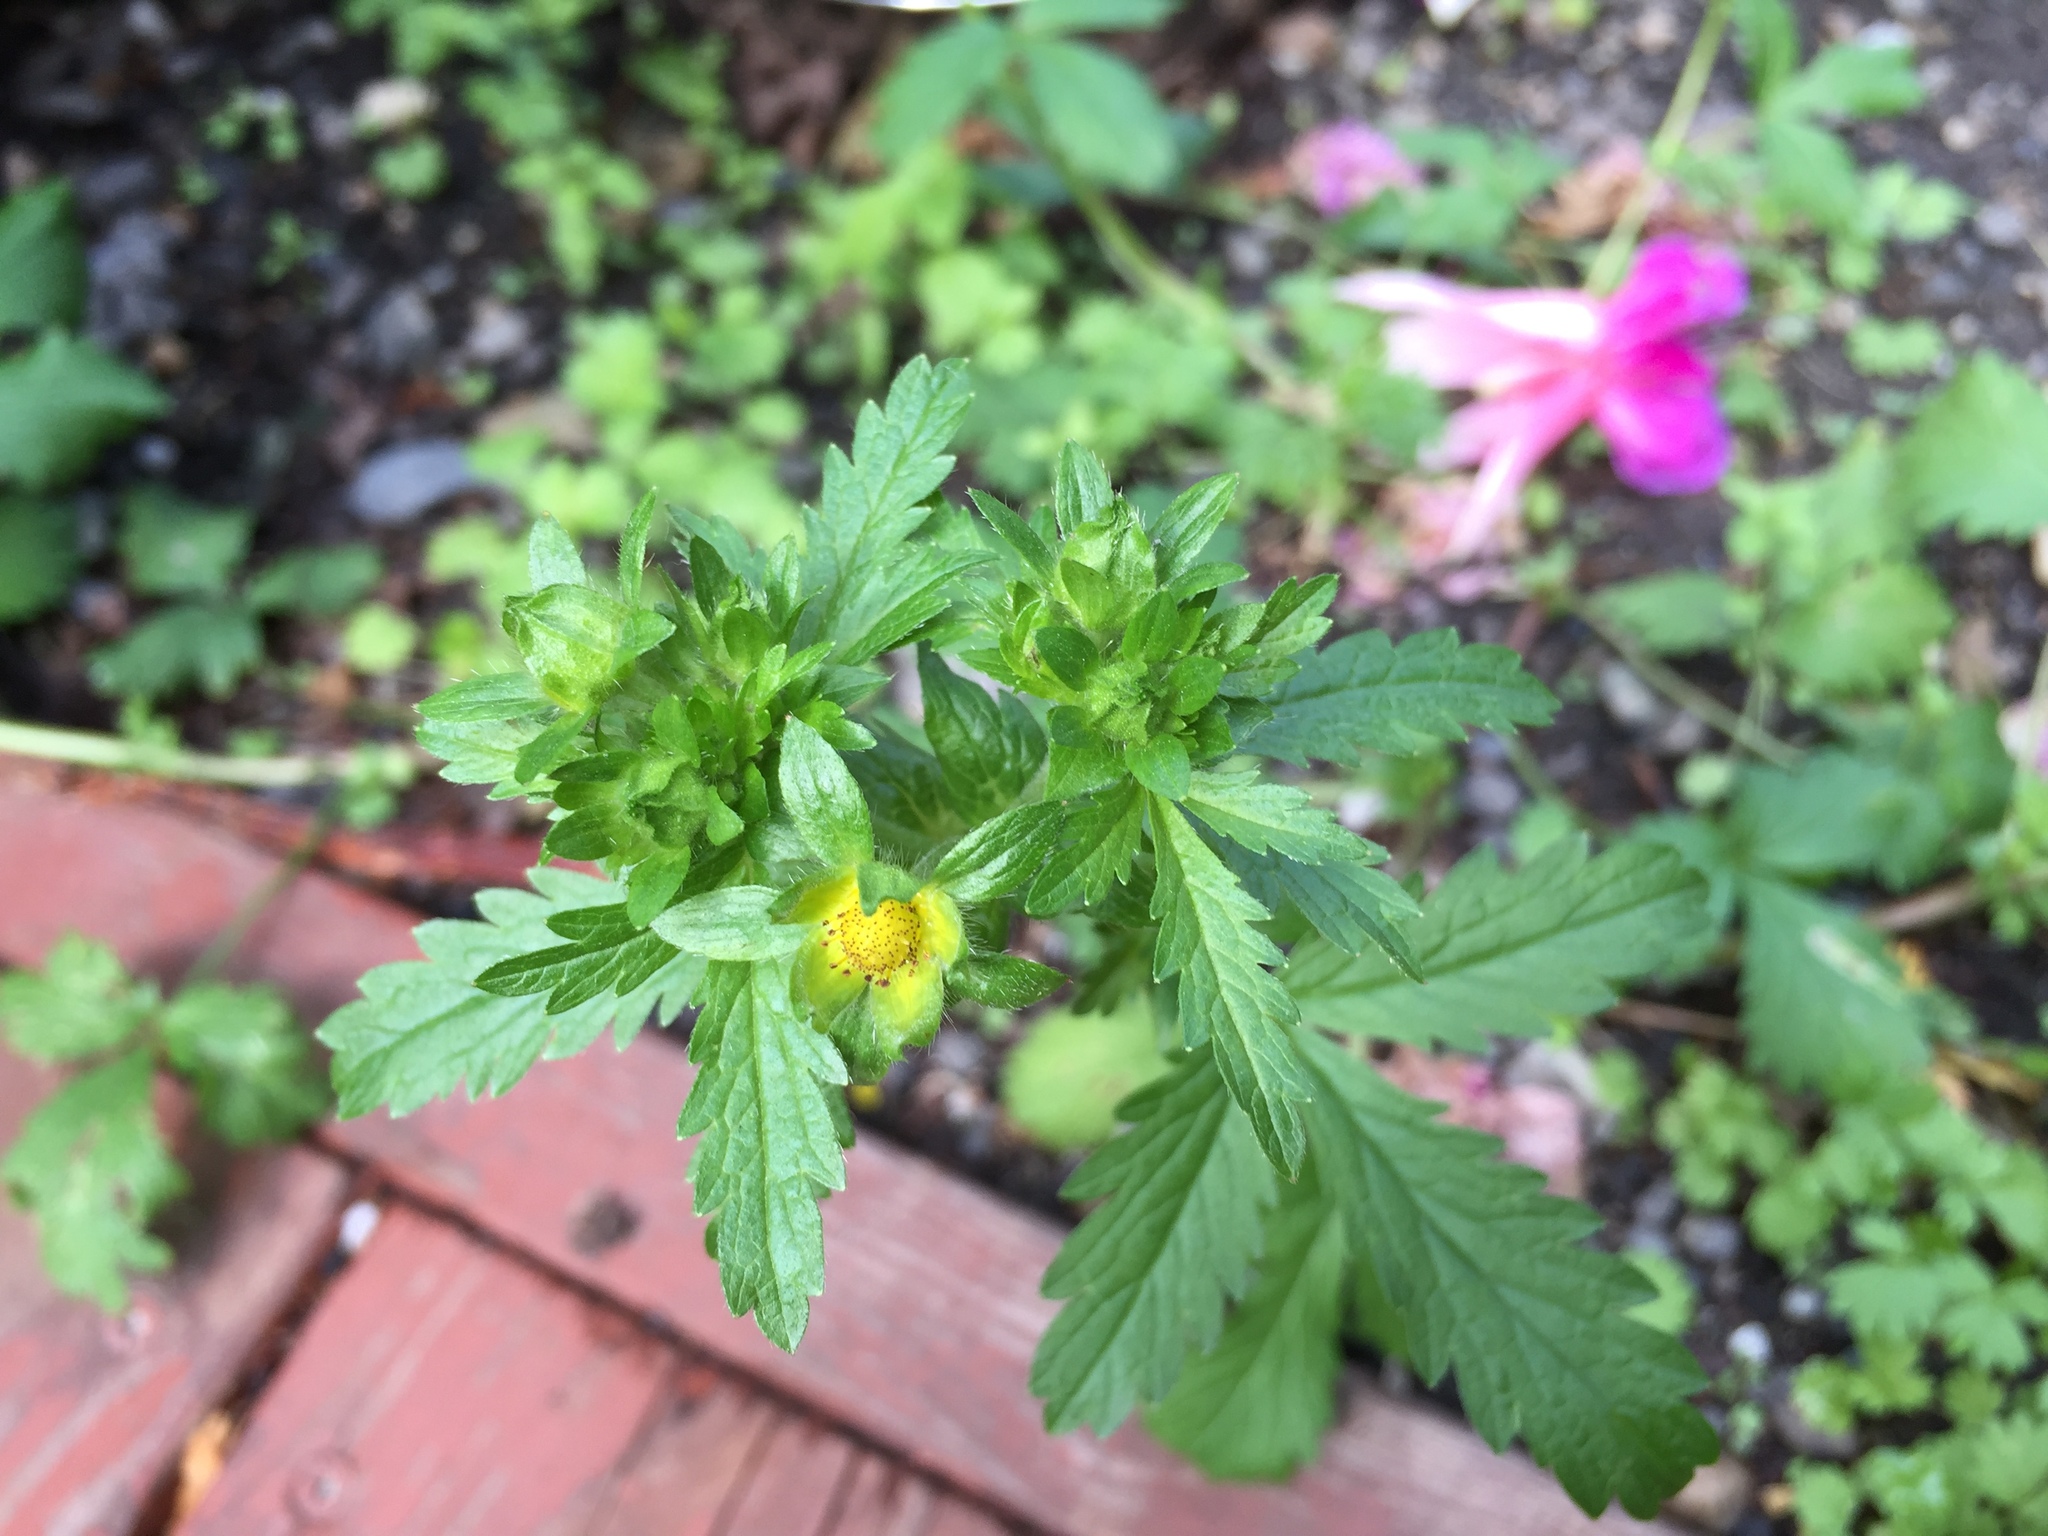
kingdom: Plantae
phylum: Tracheophyta
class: Magnoliopsida
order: Rosales
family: Rosaceae
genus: Potentilla
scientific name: Potentilla norvegica
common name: Ternate-leaved cinquefoil
